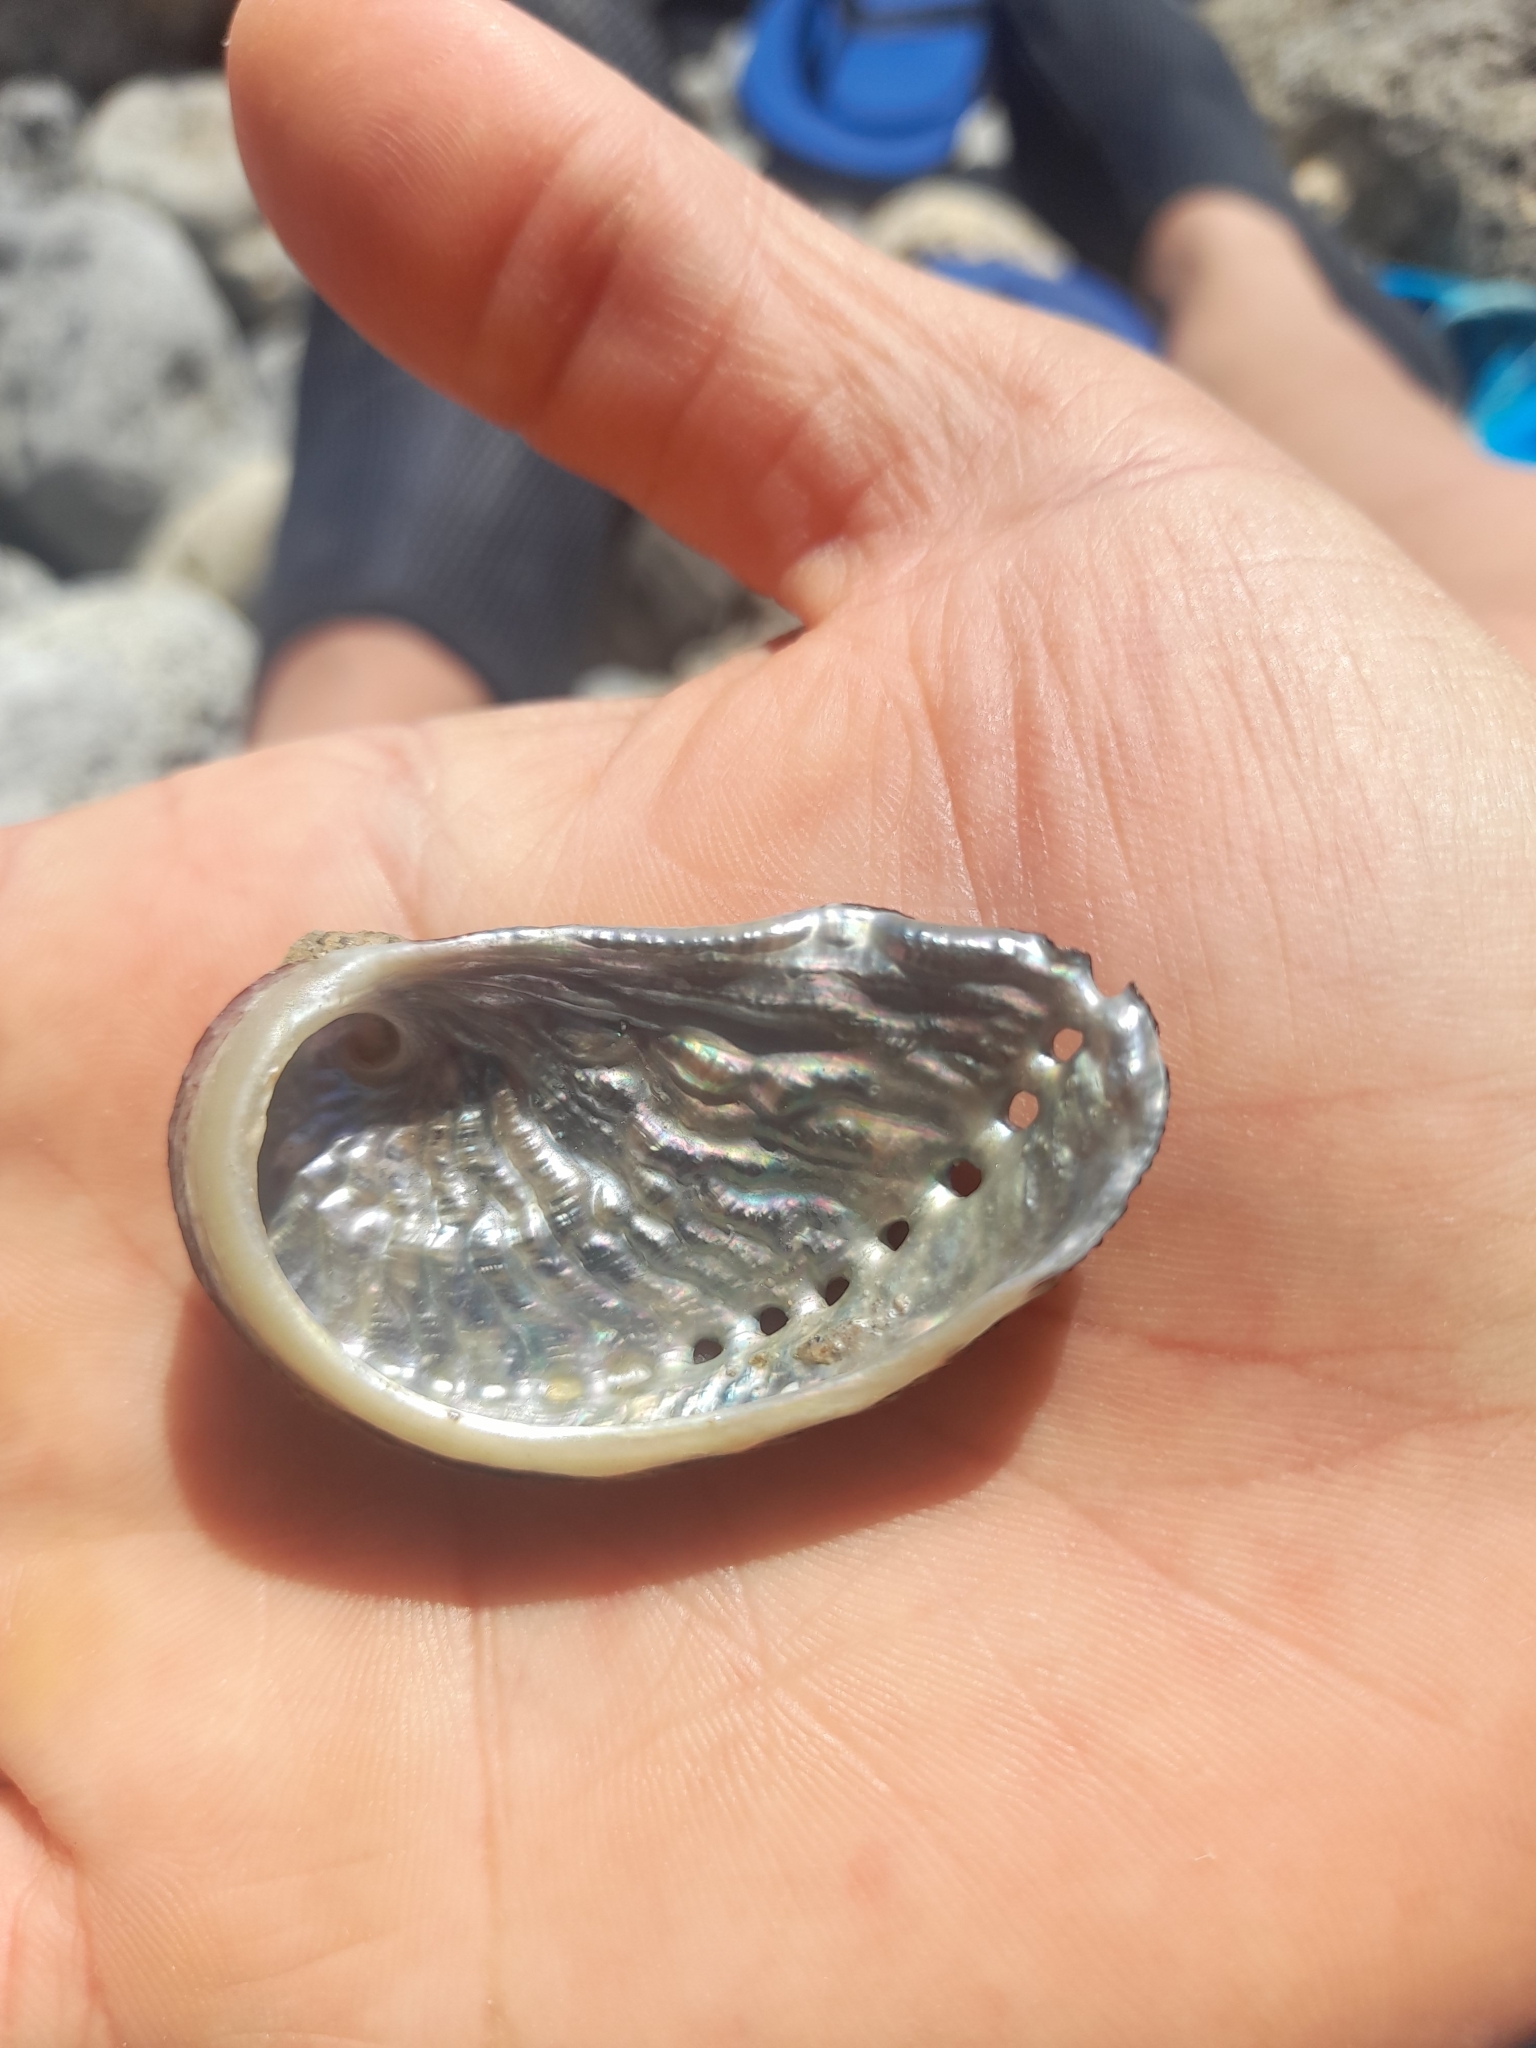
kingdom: Animalia
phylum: Mollusca
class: Gastropoda
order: Lepetellida
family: Haliotidae
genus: Haliotis
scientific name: Haliotis tuberculata
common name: Green ormer
